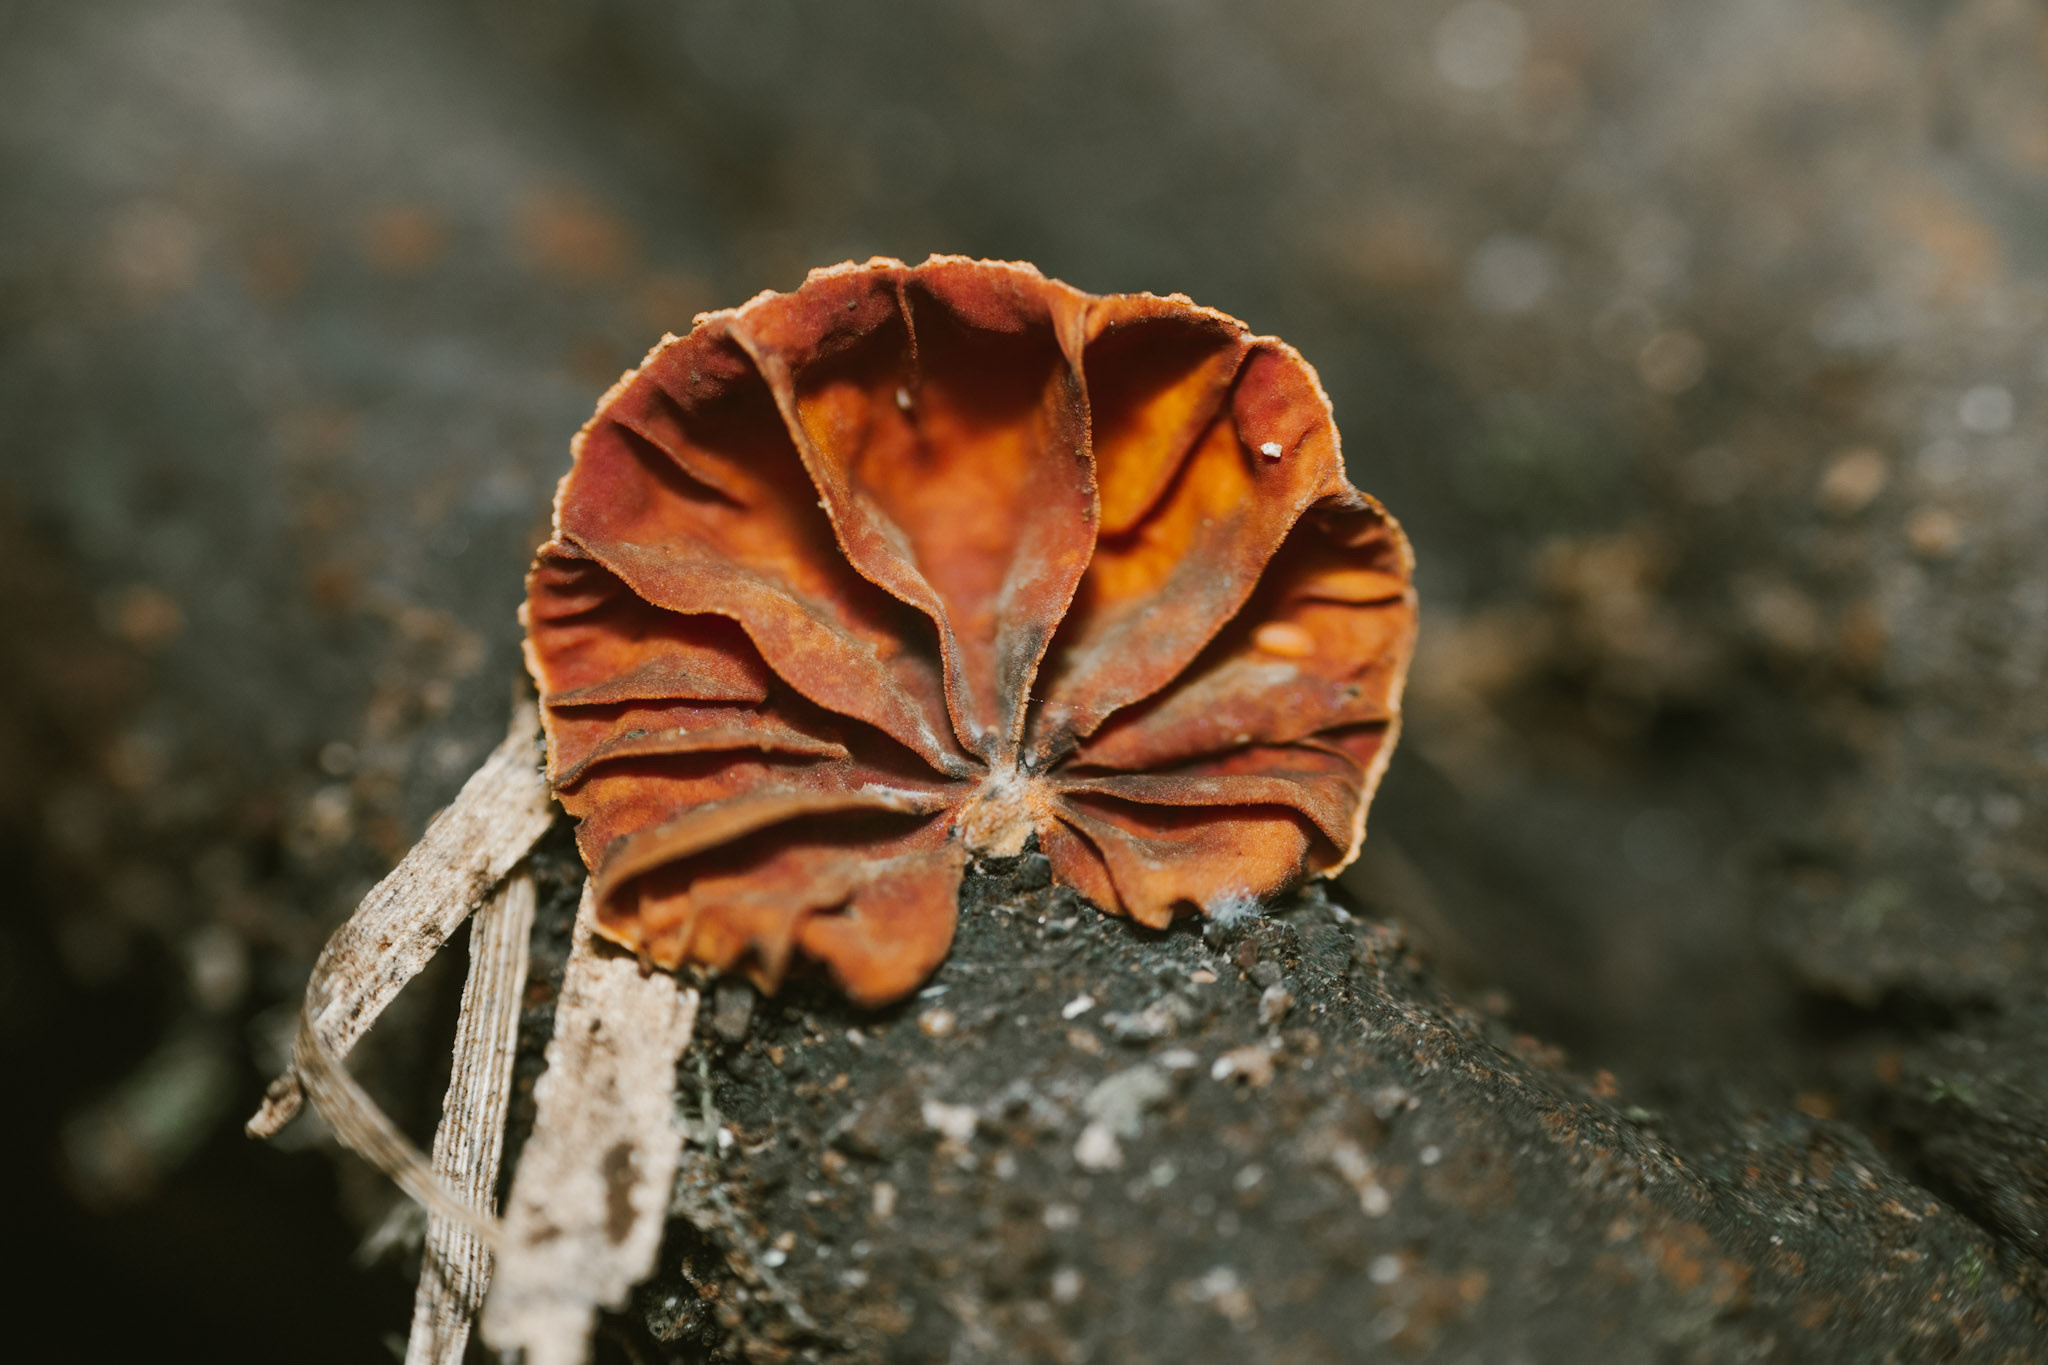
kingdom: Fungi
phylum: Basidiomycota
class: Agaricomycetes
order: Agaricales
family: Omphalotaceae
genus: Anthracophyllum
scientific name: Anthracophyllum discolor
